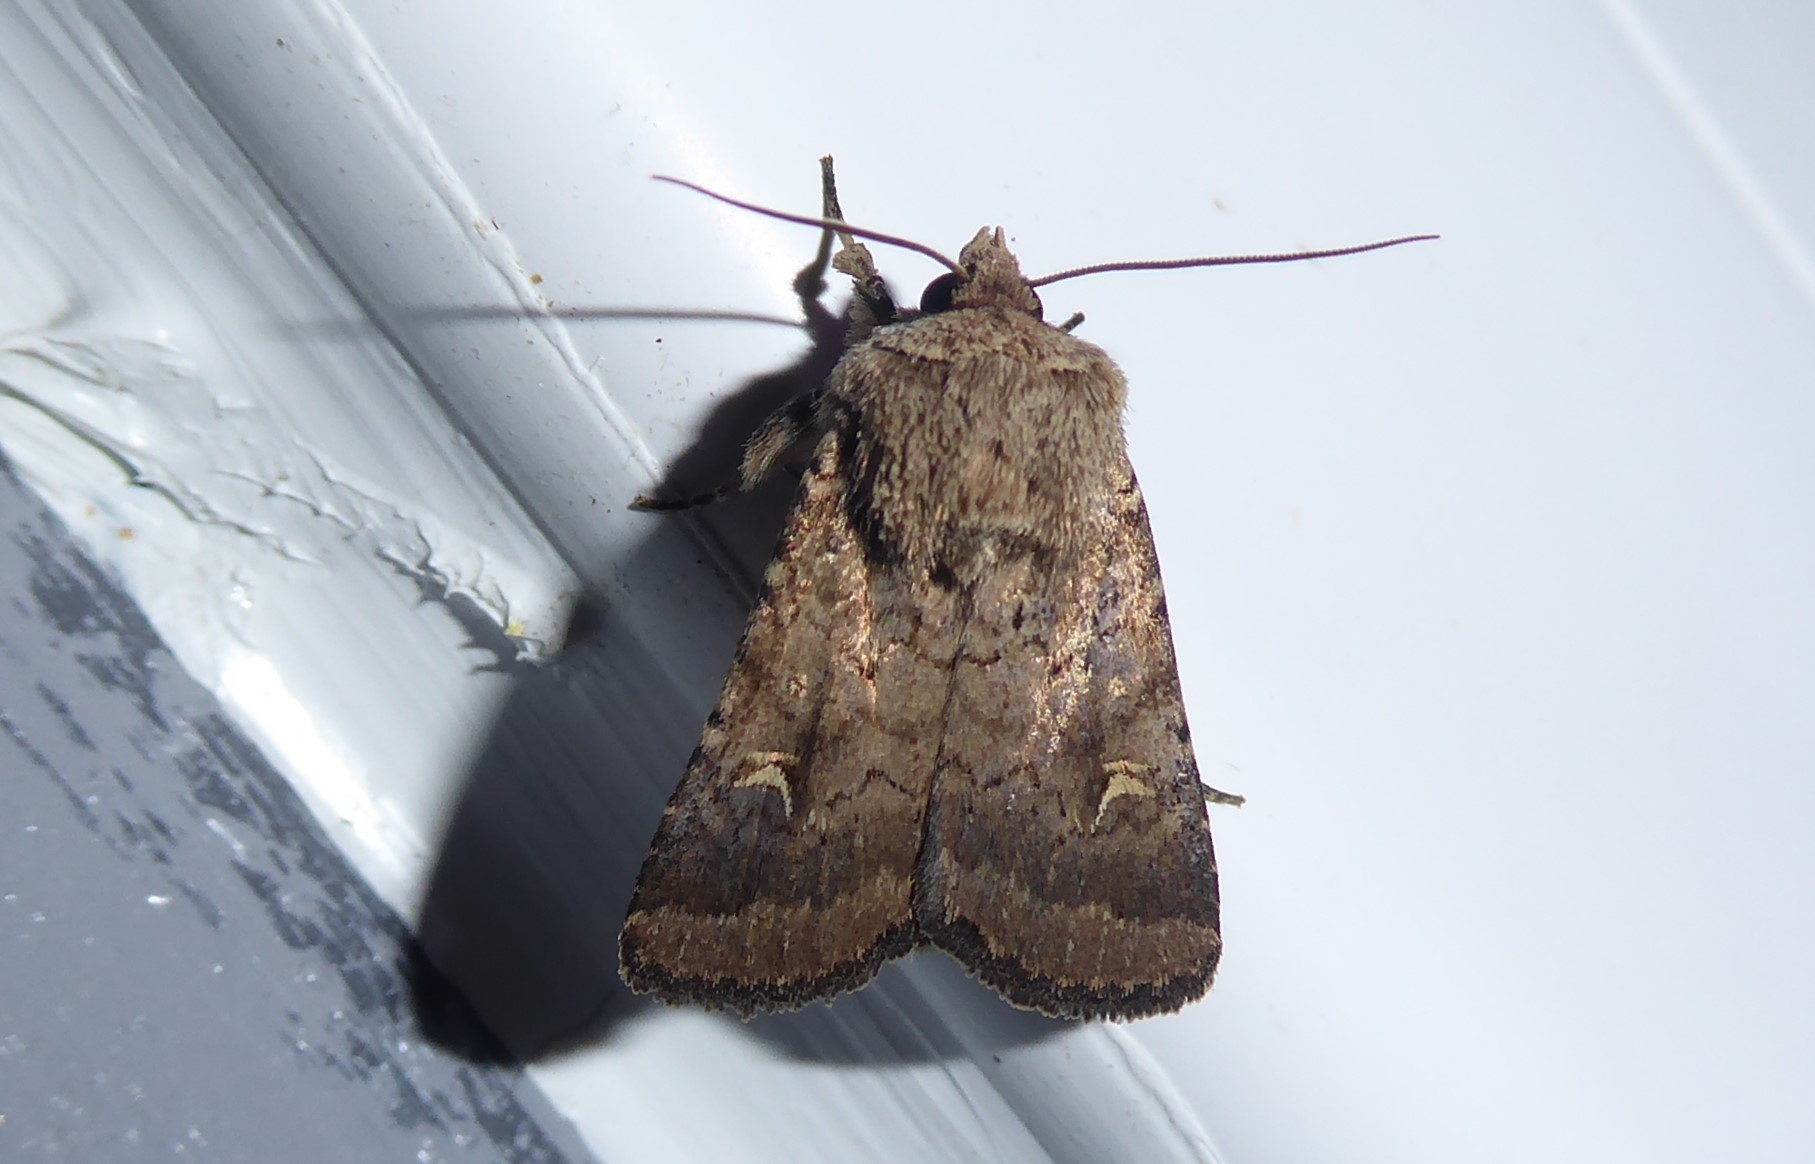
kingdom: Animalia
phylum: Arthropoda
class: Insecta
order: Lepidoptera
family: Noctuidae
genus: Proteuxoa
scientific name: Proteuxoa tetronycha
